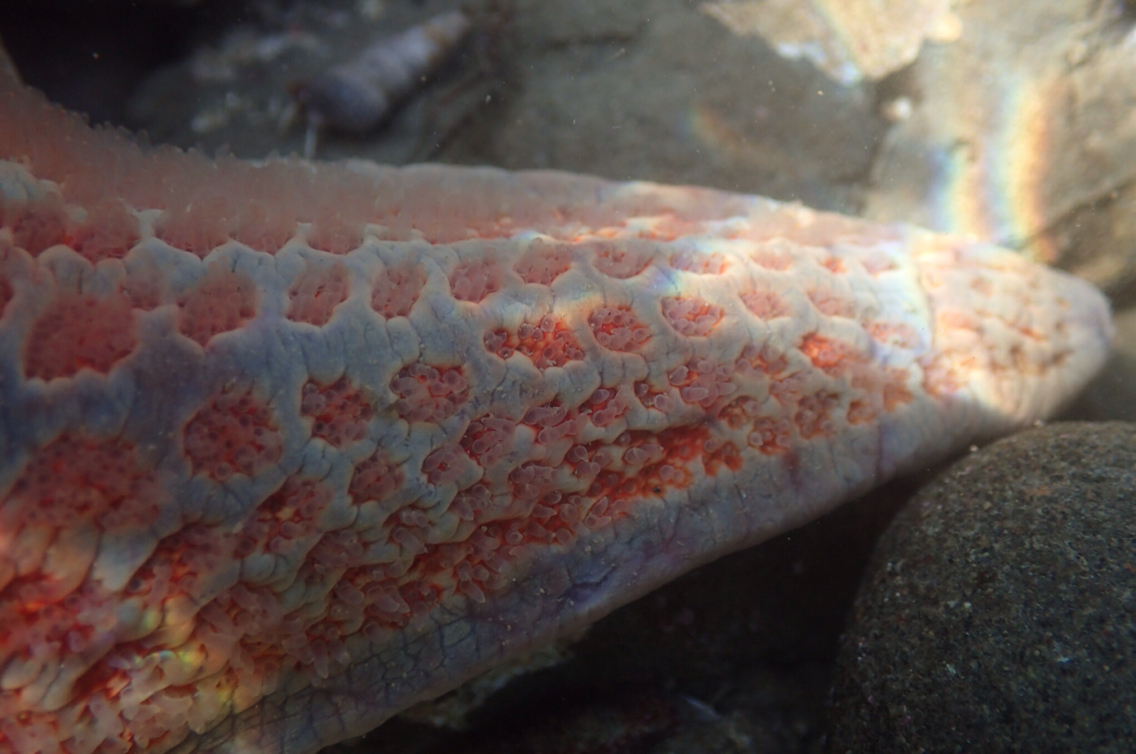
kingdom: Animalia
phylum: Echinodermata
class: Asteroidea
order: Valvatida
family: Asteropseidae
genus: Dermasterias
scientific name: Dermasterias imbricata
